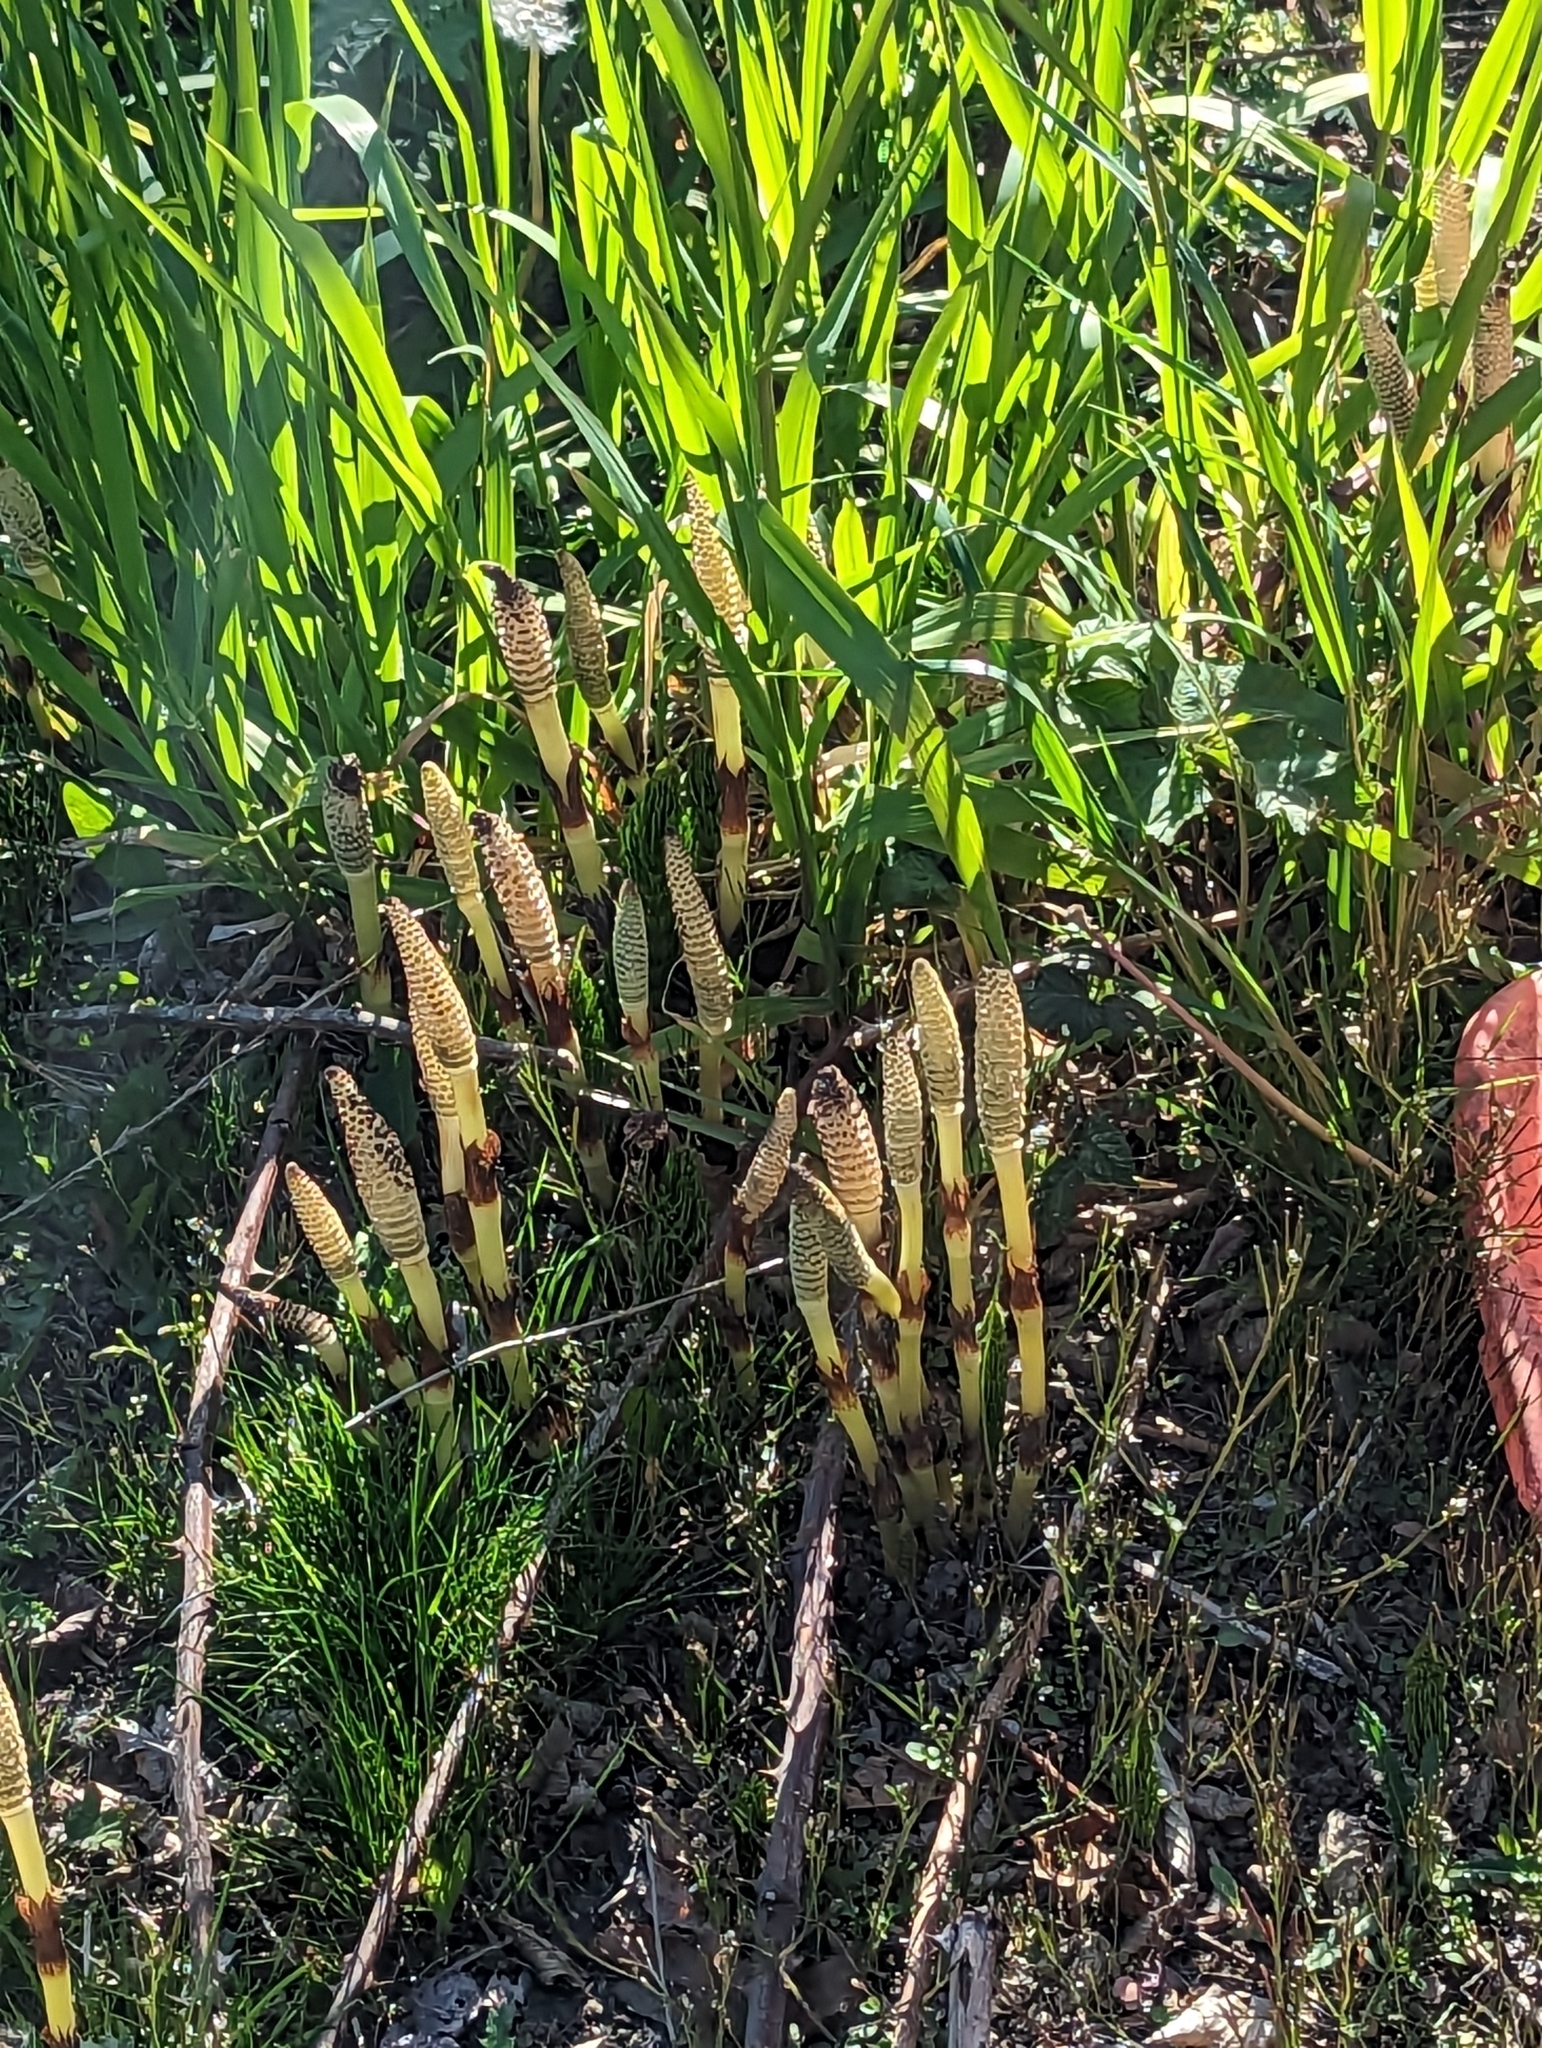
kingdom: Plantae
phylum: Tracheophyta
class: Polypodiopsida
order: Equisetales
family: Equisetaceae
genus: Equisetum
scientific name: Equisetum telmateia
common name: Great horsetail
